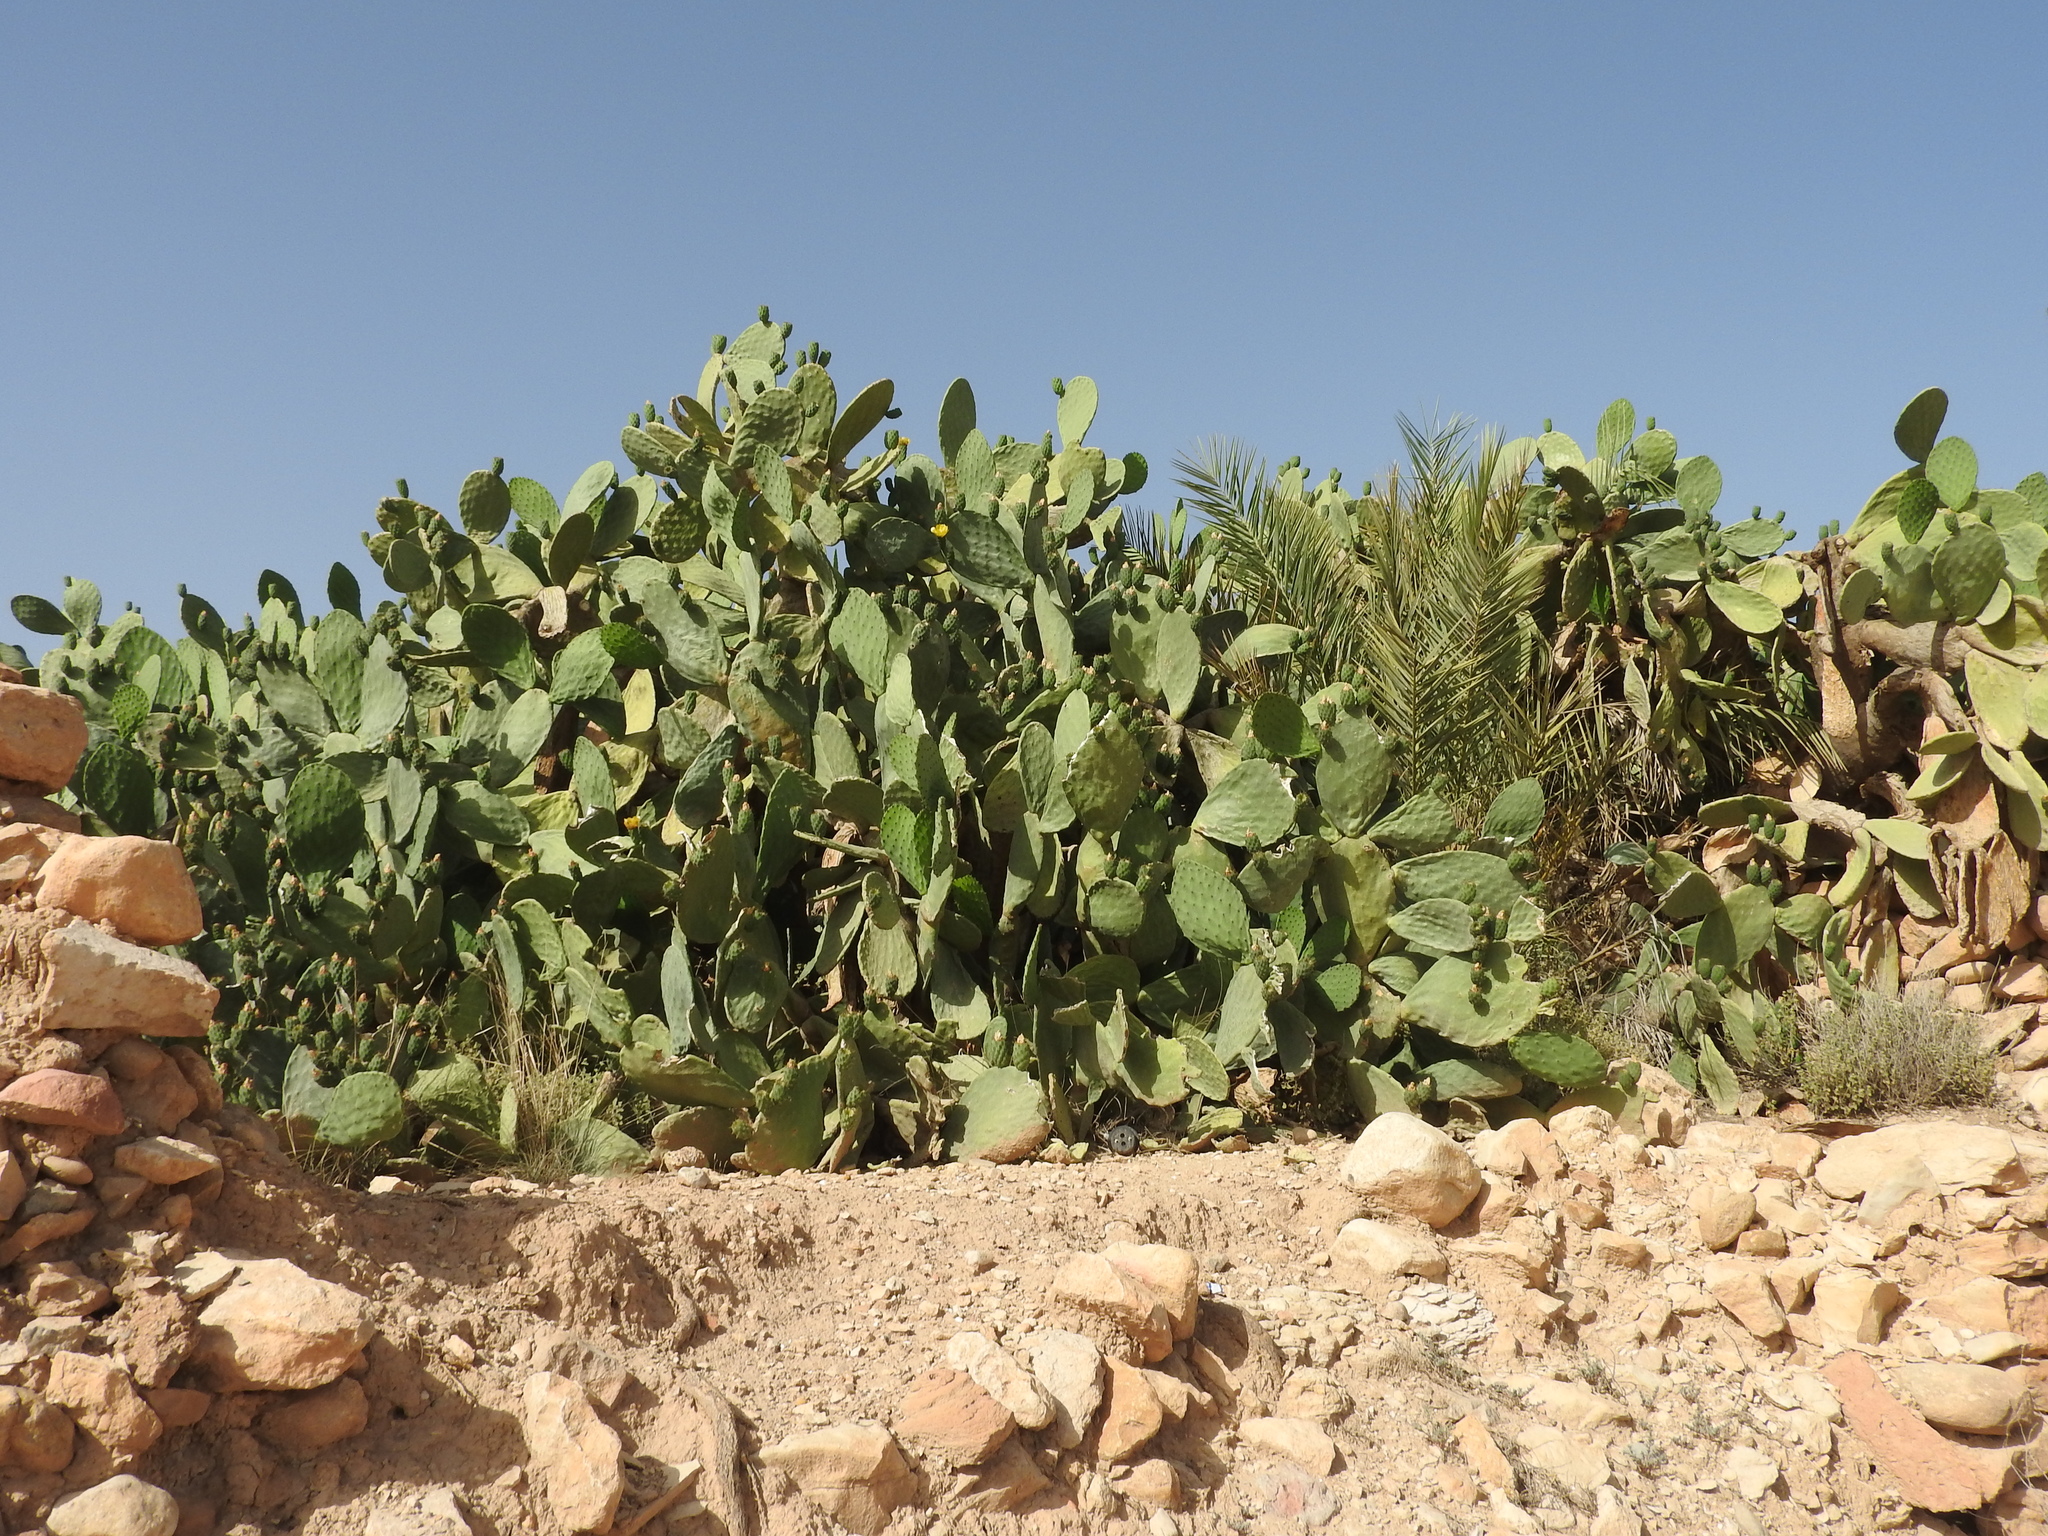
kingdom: Plantae
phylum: Tracheophyta
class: Magnoliopsida
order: Caryophyllales
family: Cactaceae
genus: Opuntia
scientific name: Opuntia ficus-indica
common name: Barbary fig
